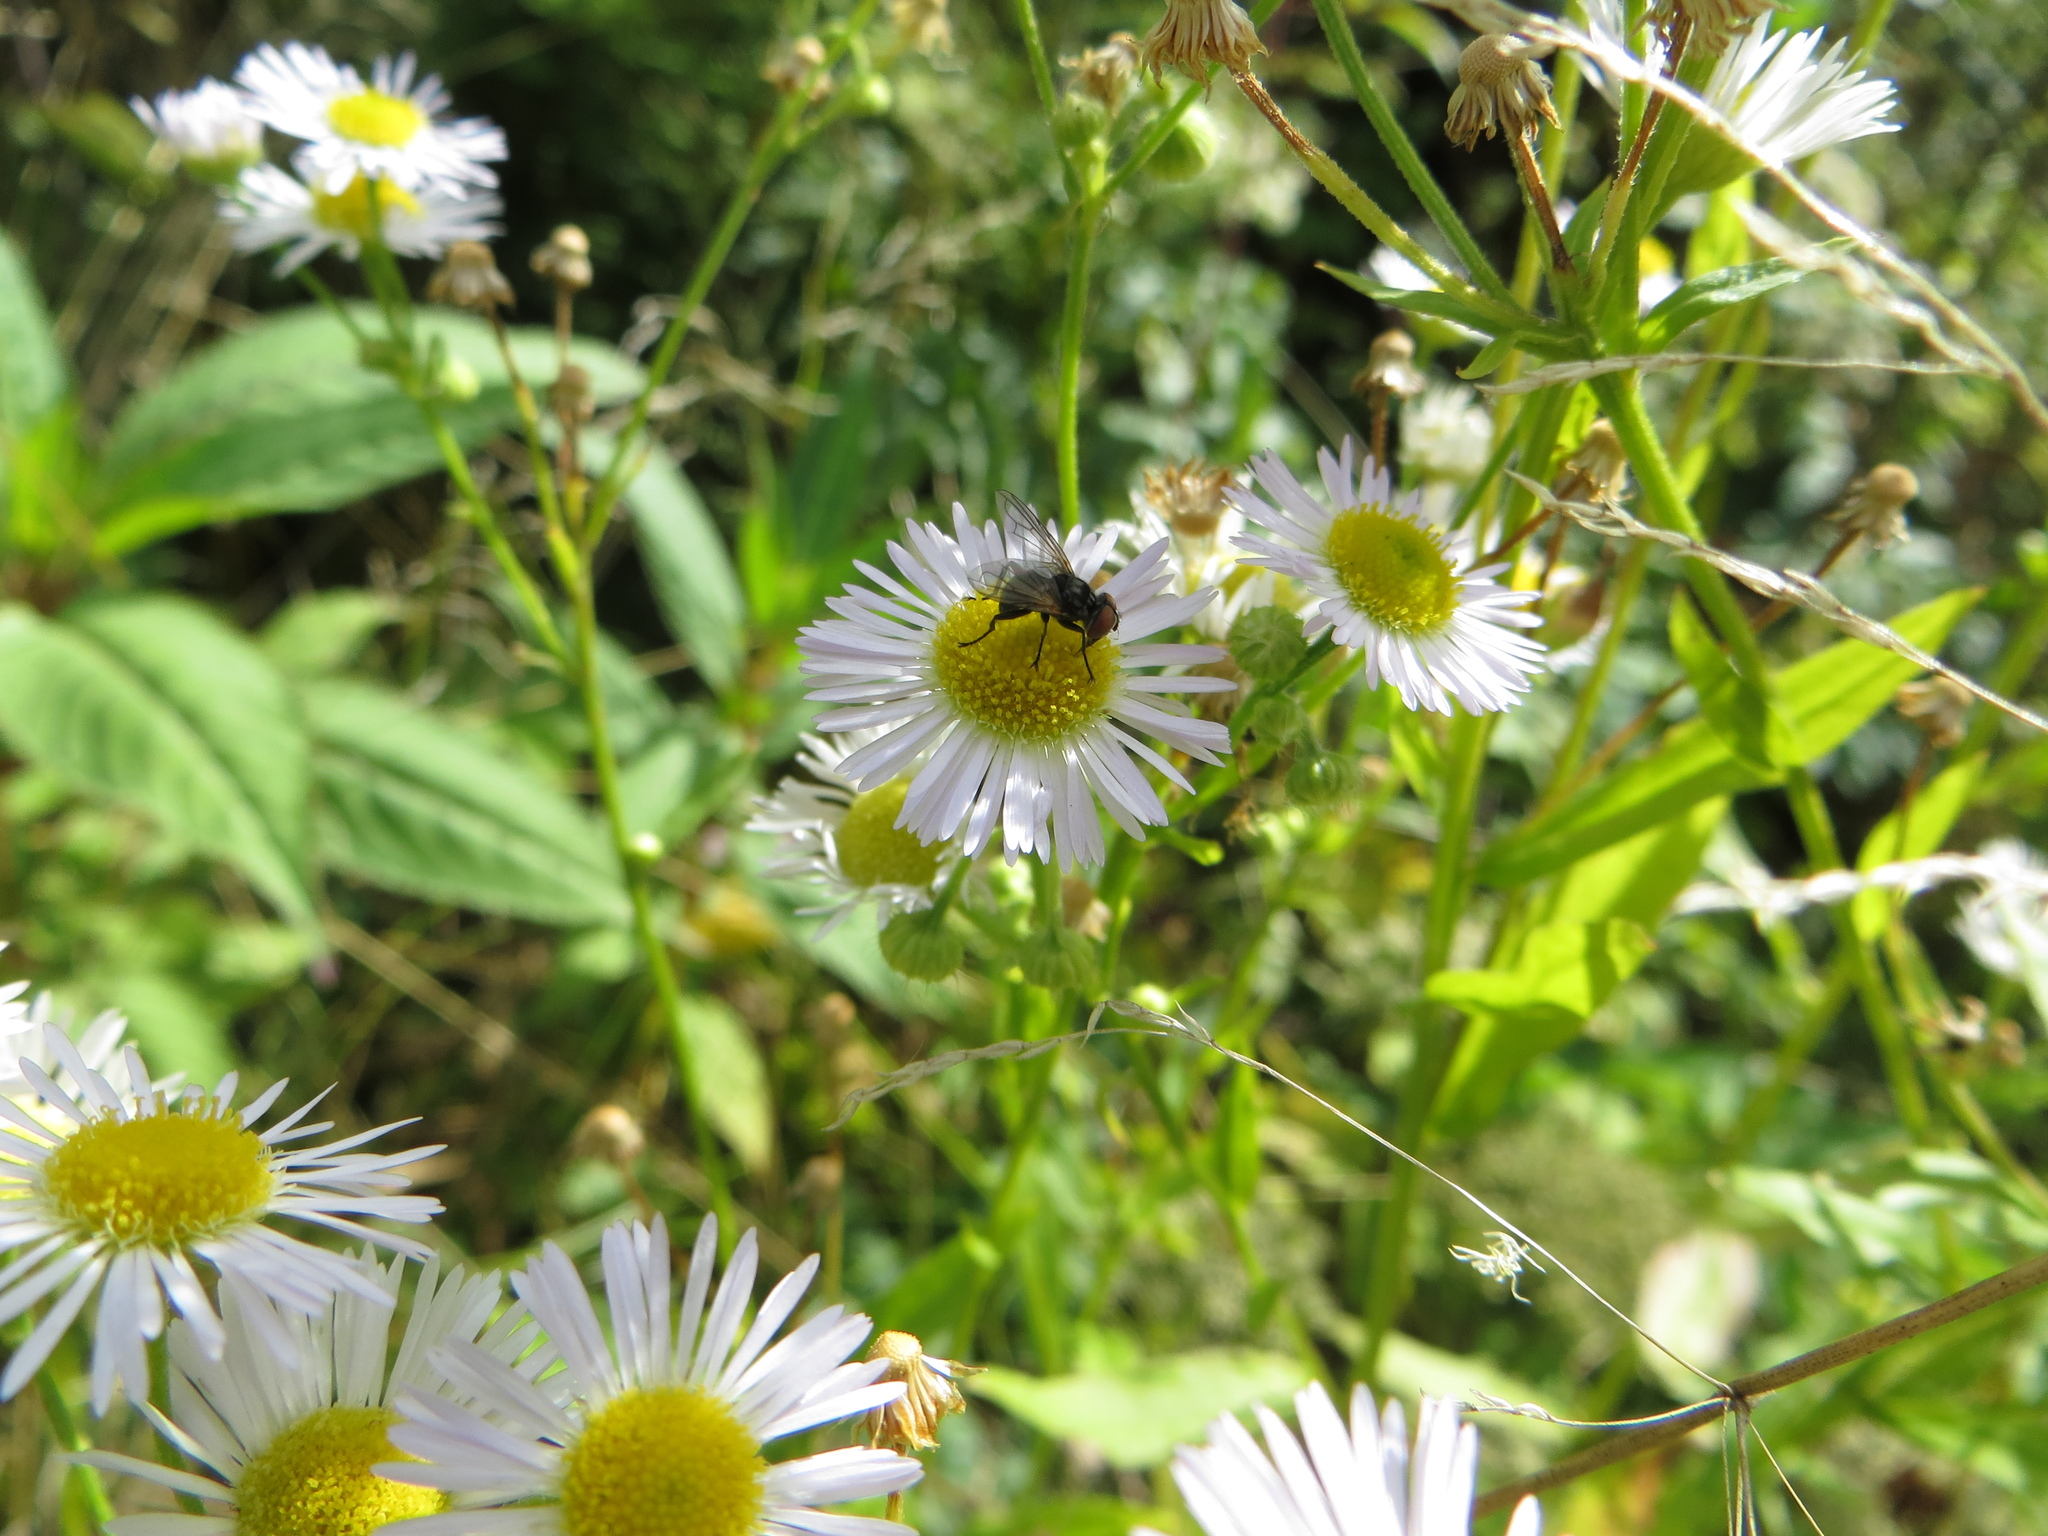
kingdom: Animalia
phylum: Arthropoda
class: Insecta
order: Diptera
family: Tachinidae
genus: Phasia
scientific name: Phasia obesa
